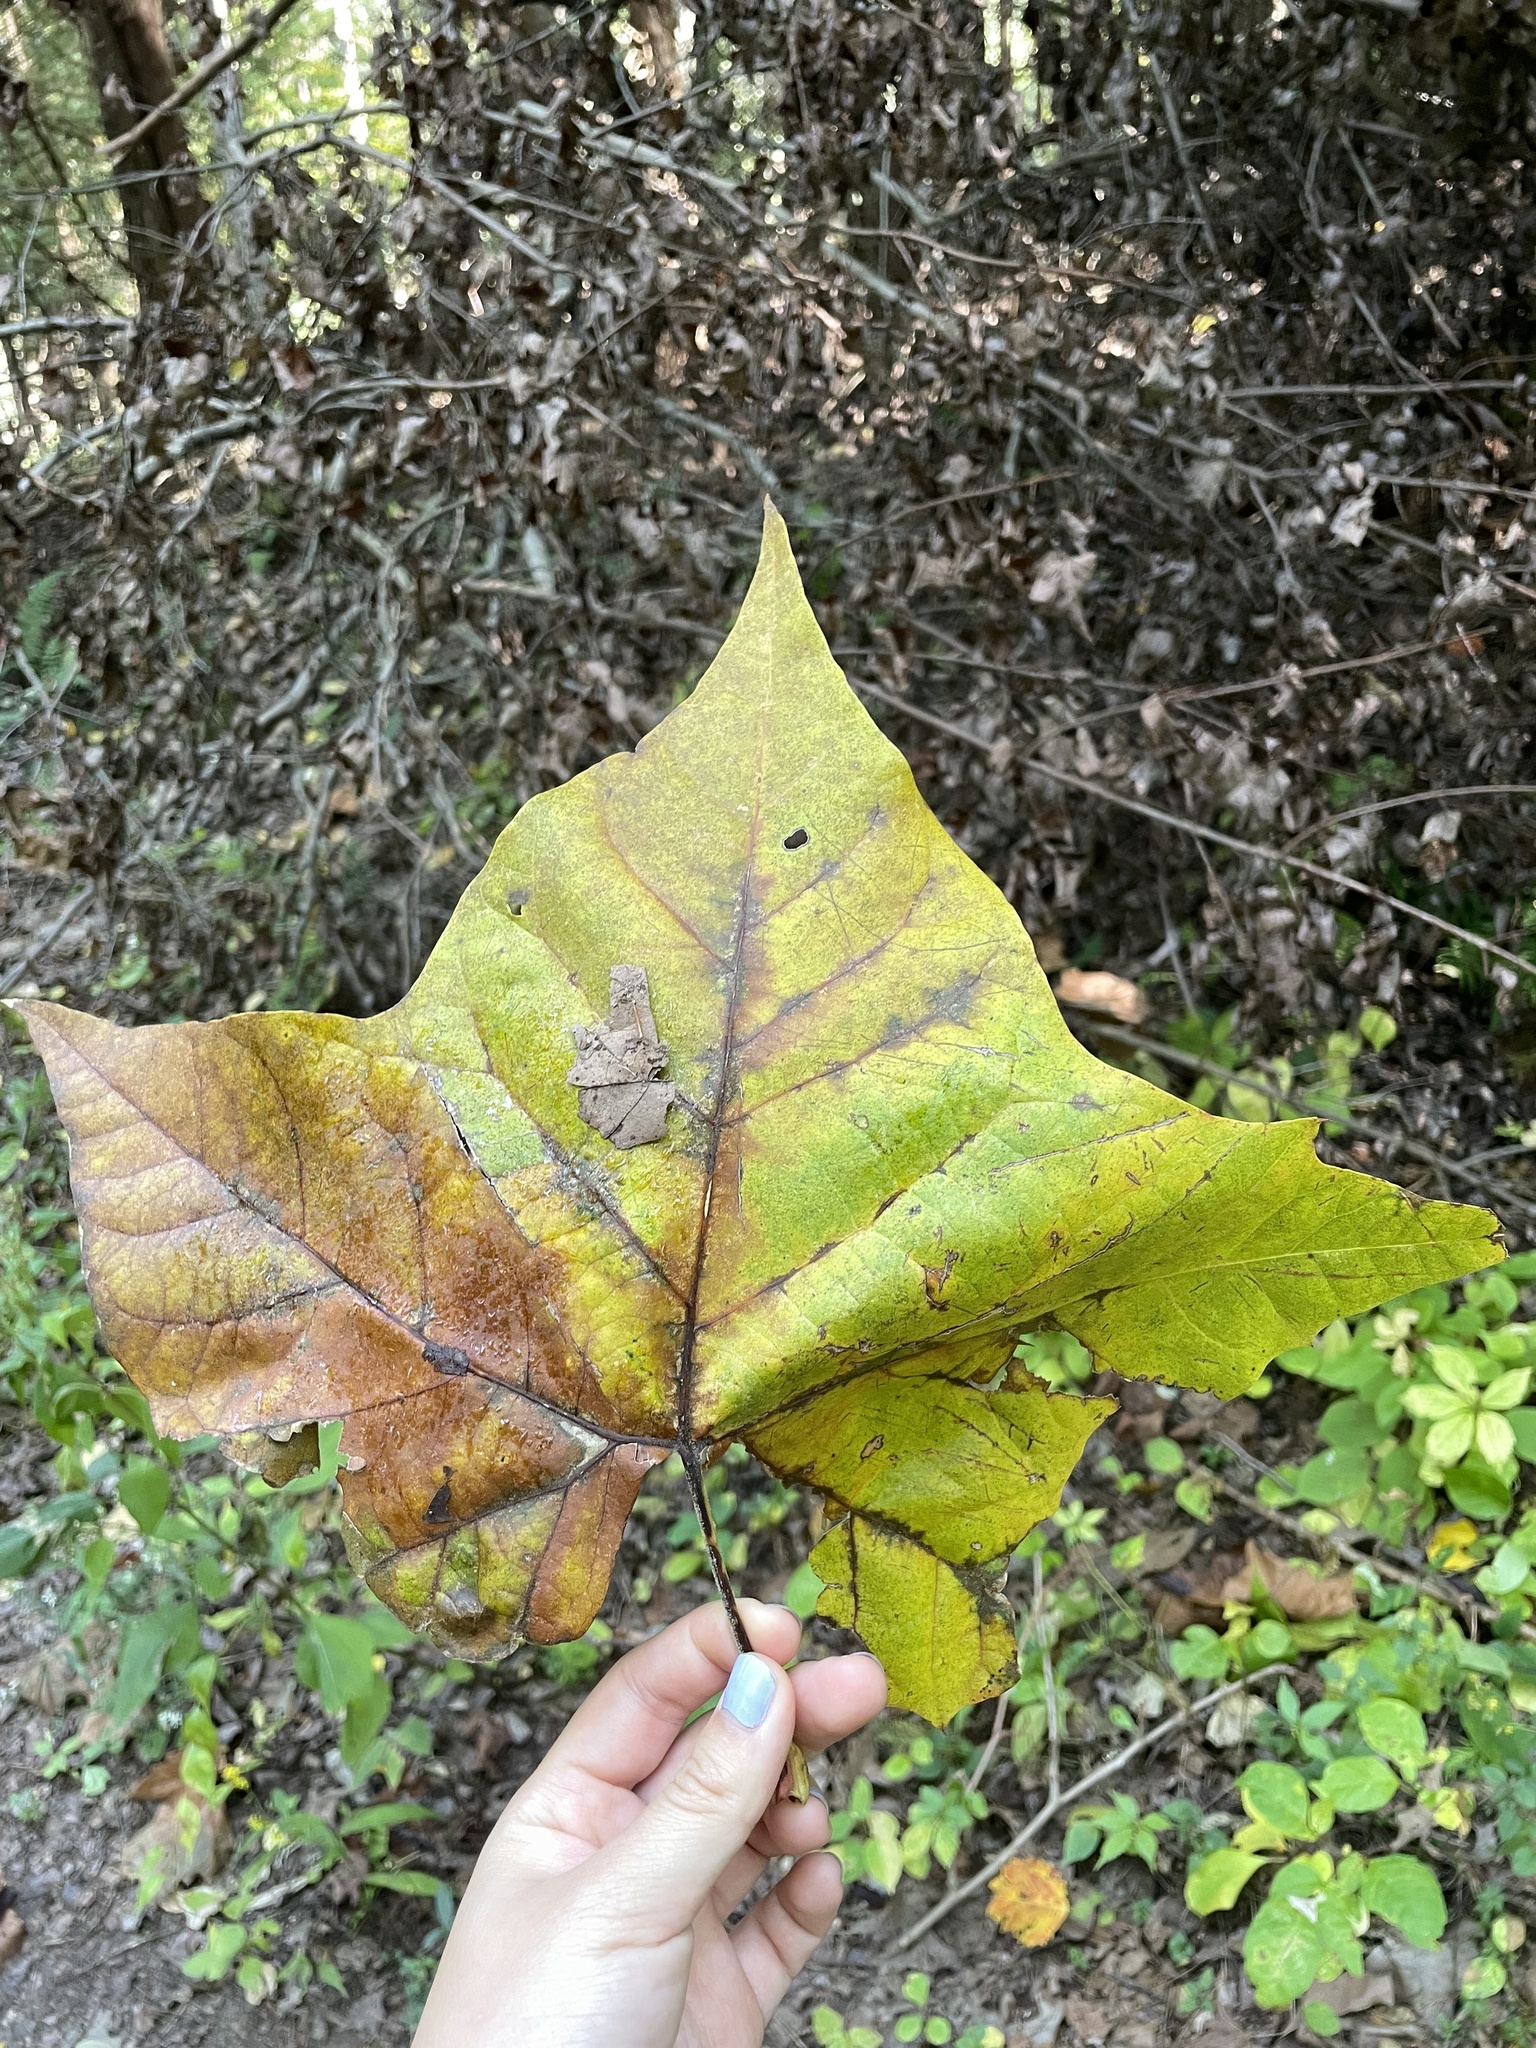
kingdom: Plantae
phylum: Tracheophyta
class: Magnoliopsida
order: Proteales
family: Platanaceae
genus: Platanus
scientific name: Platanus occidentalis
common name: American sycamore
